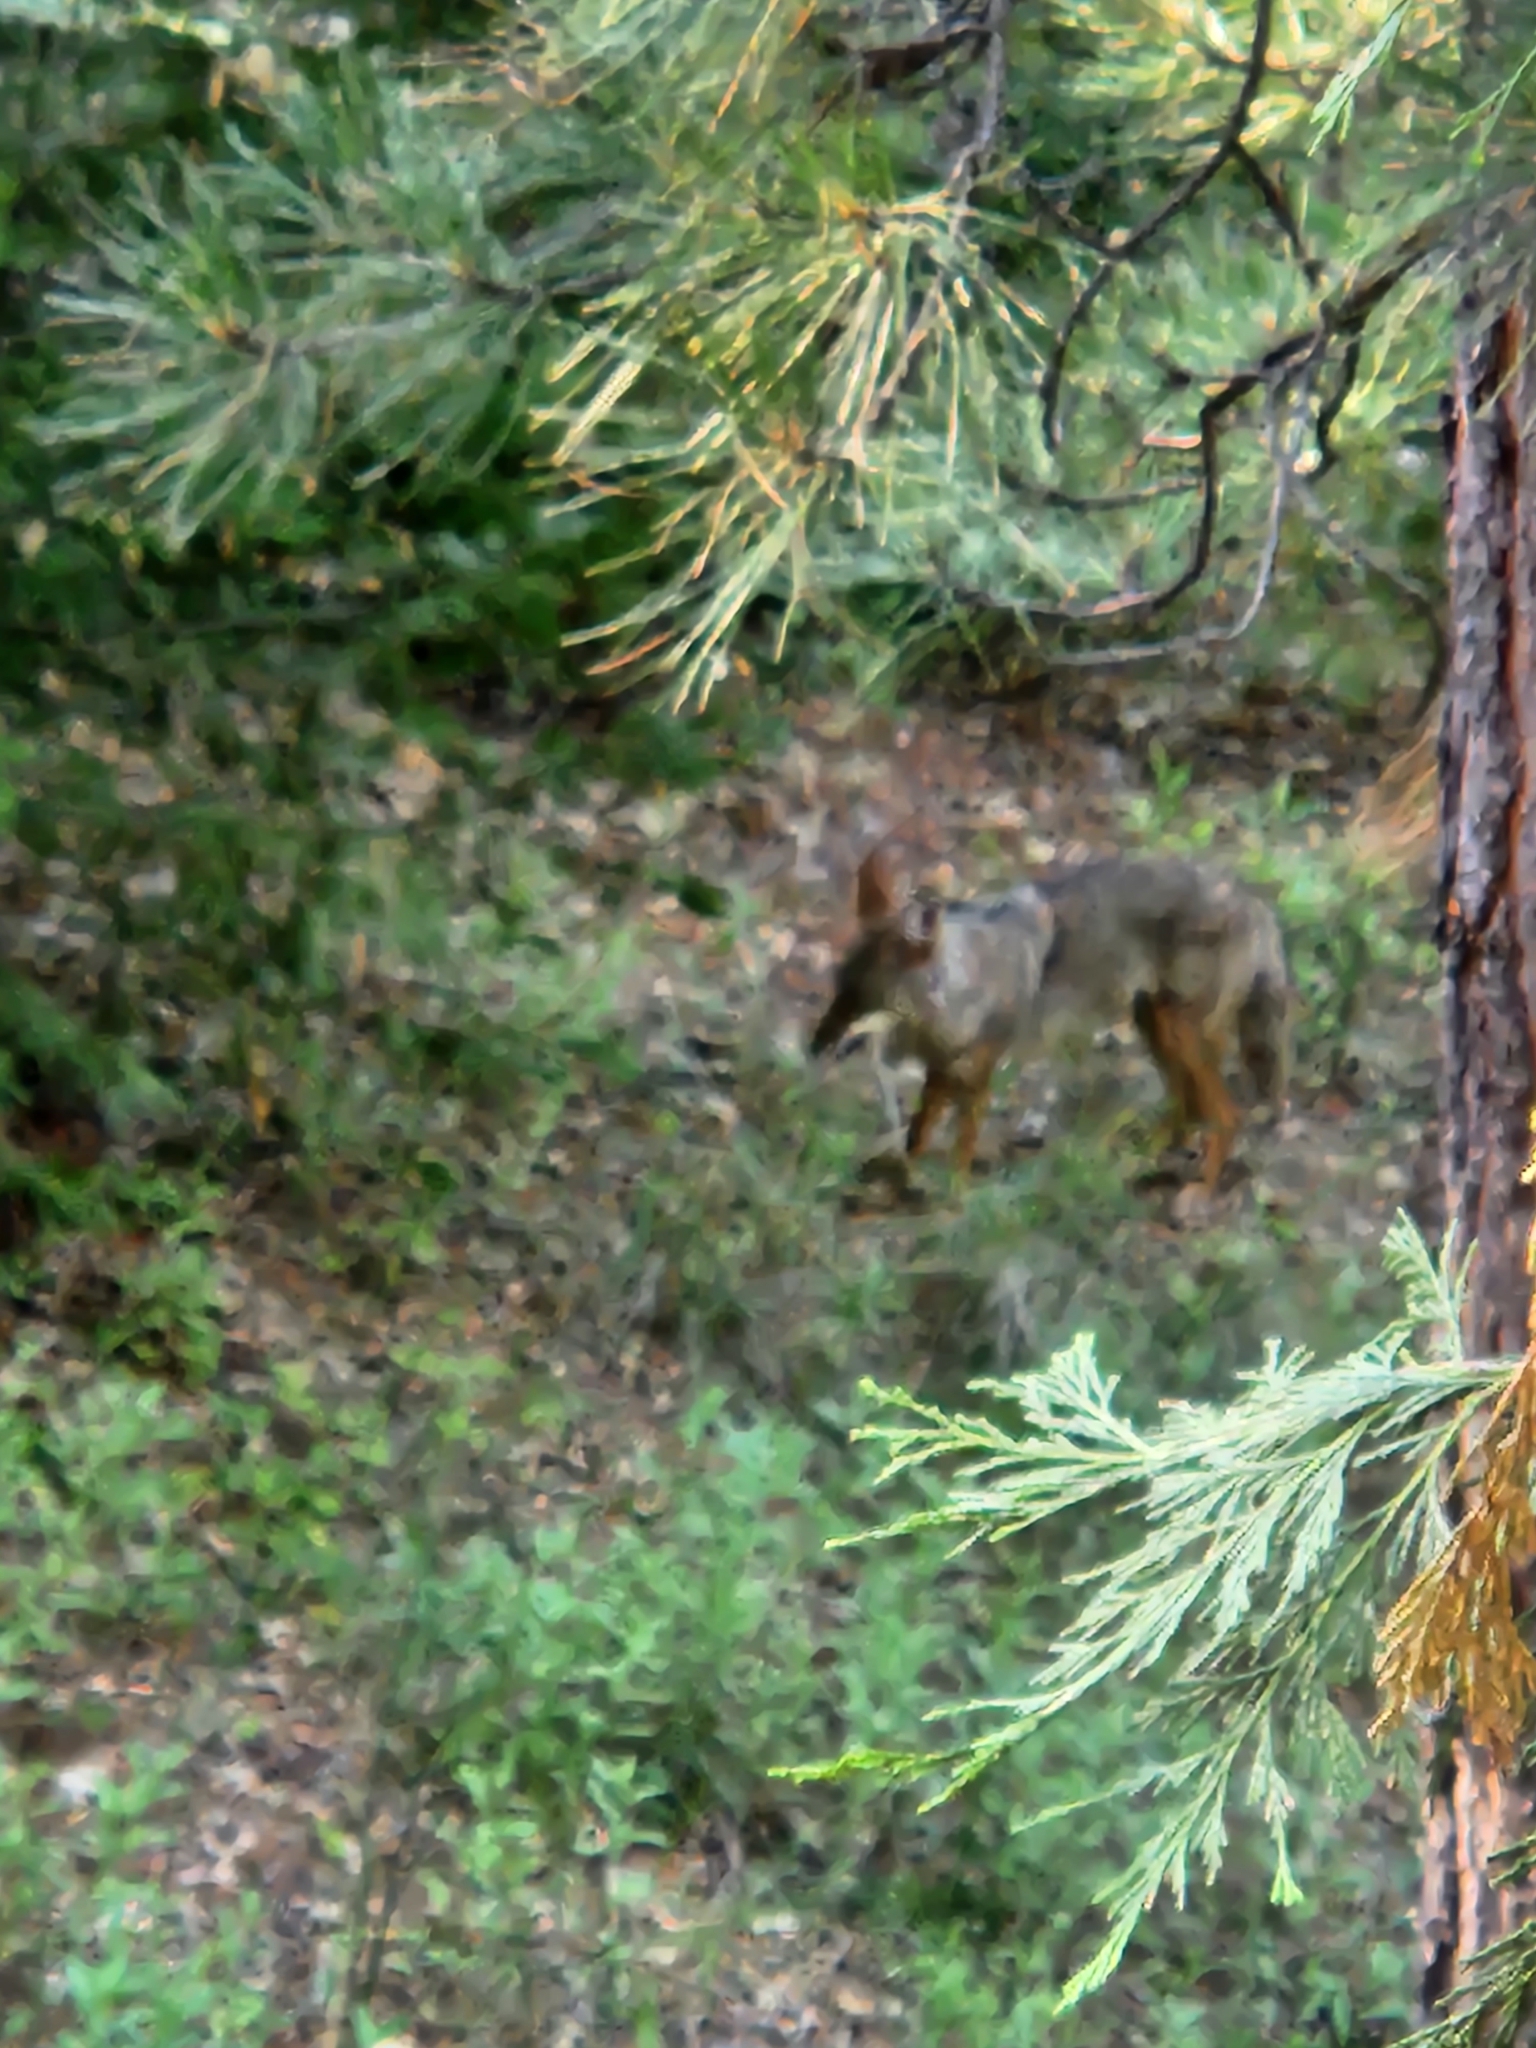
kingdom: Animalia
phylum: Chordata
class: Mammalia
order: Carnivora
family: Canidae
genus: Canis
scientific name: Canis latrans
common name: Coyote
